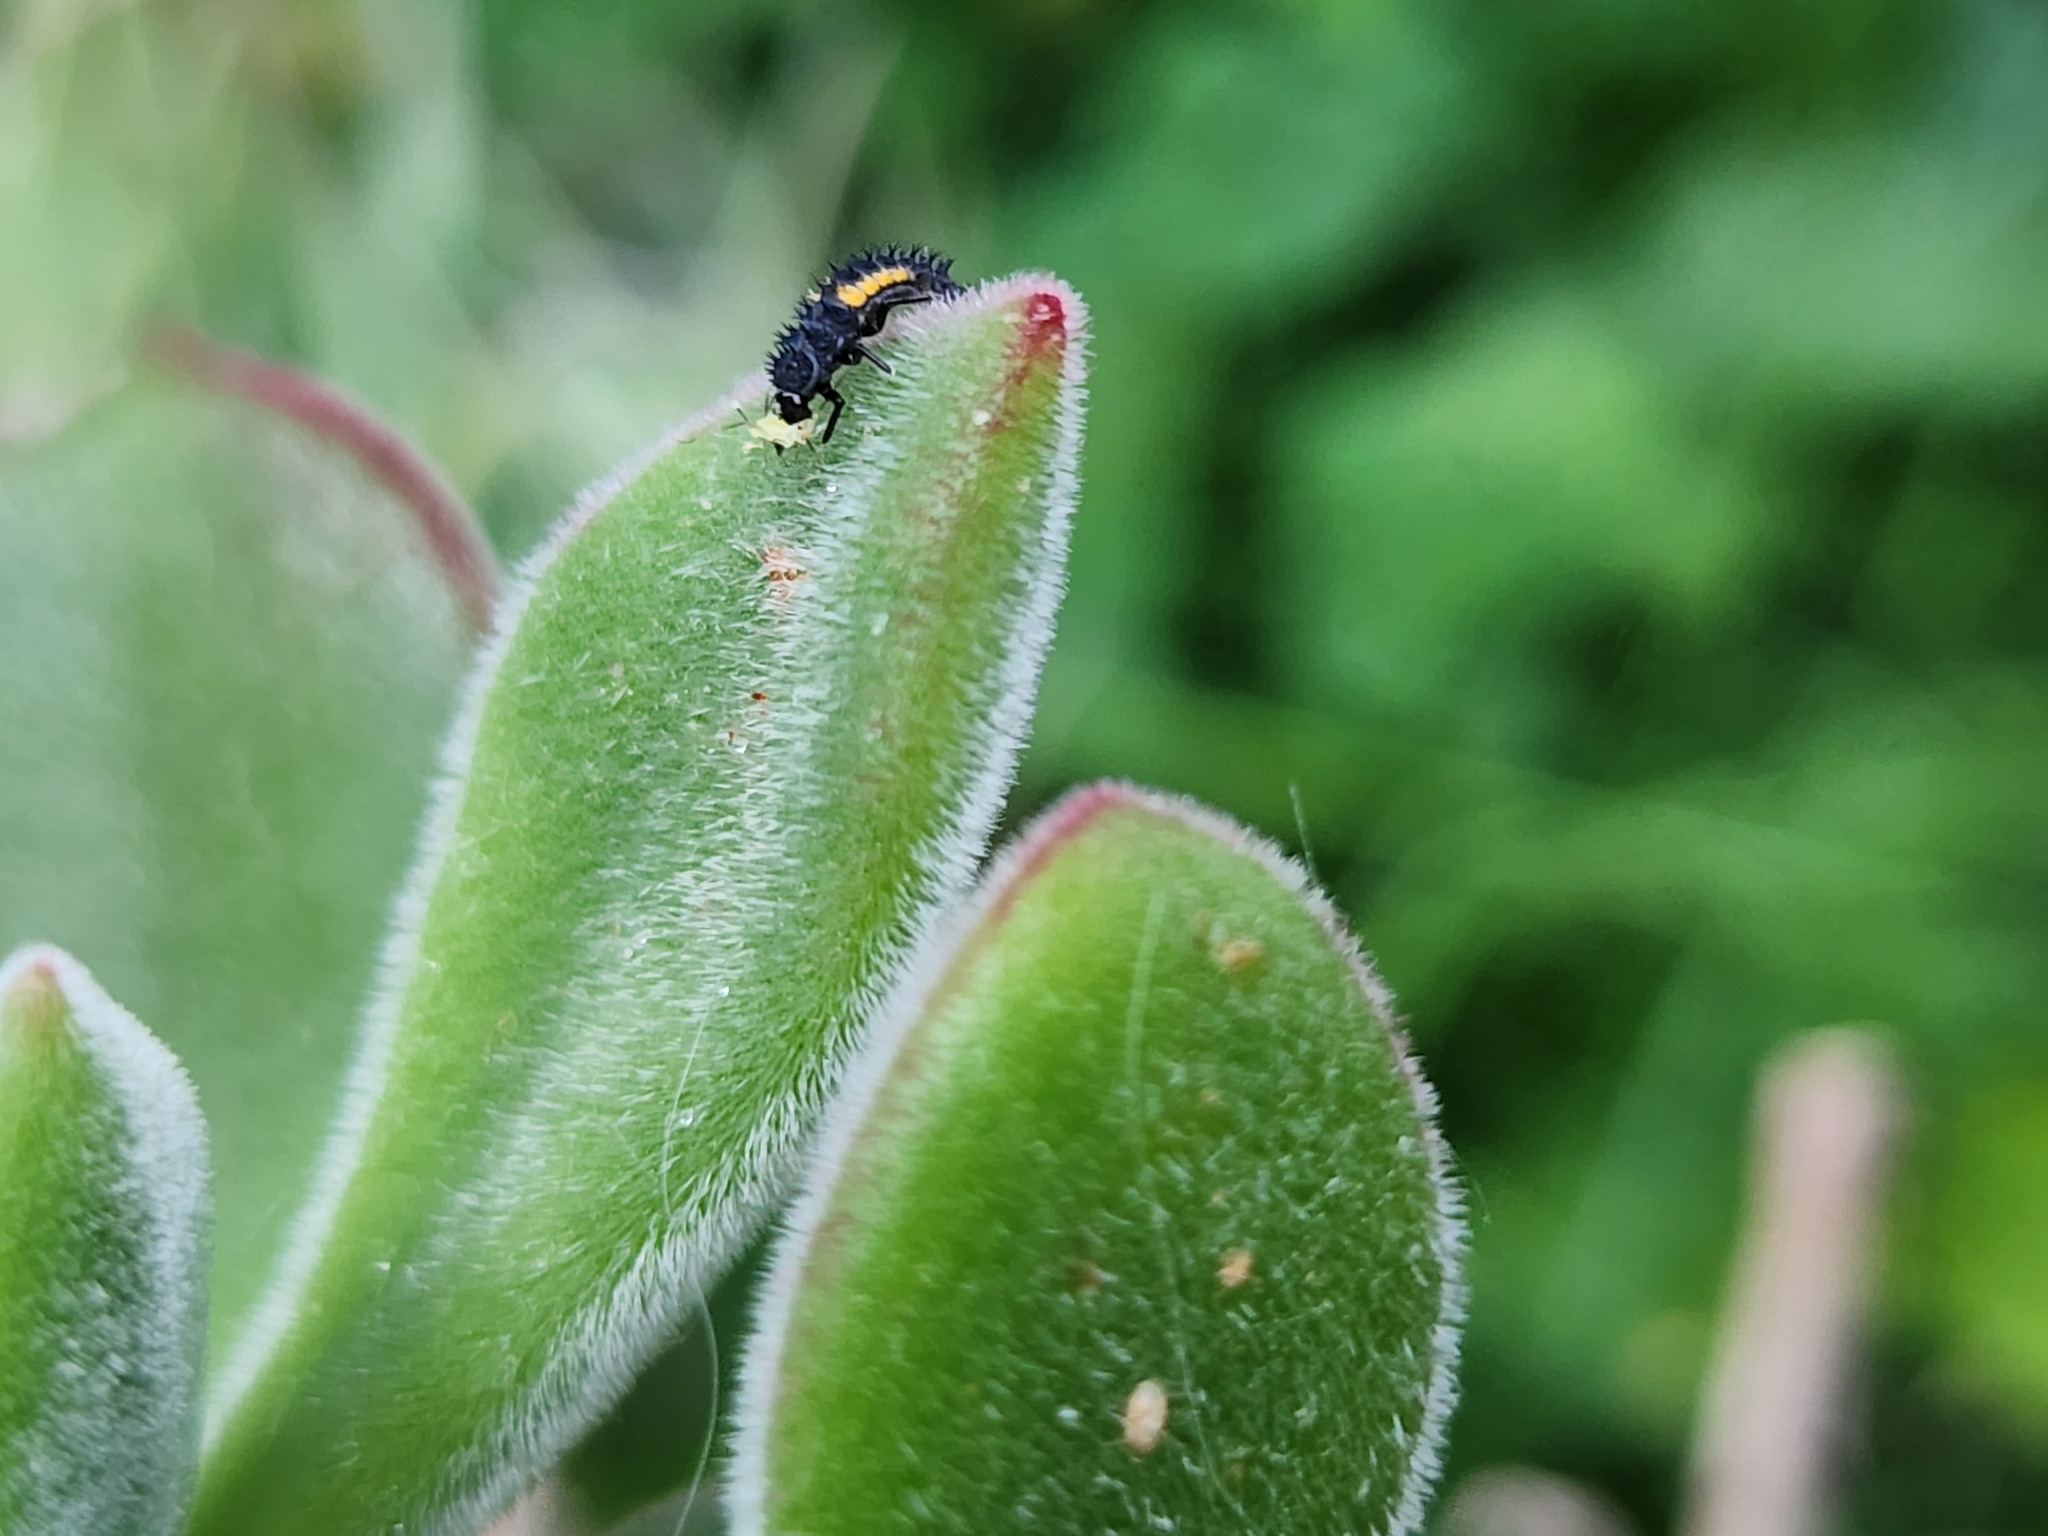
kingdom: Animalia
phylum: Arthropoda
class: Insecta
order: Coleoptera
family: Coccinellidae
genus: Harmonia
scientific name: Harmonia axyridis
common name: Harlequin ladybird
